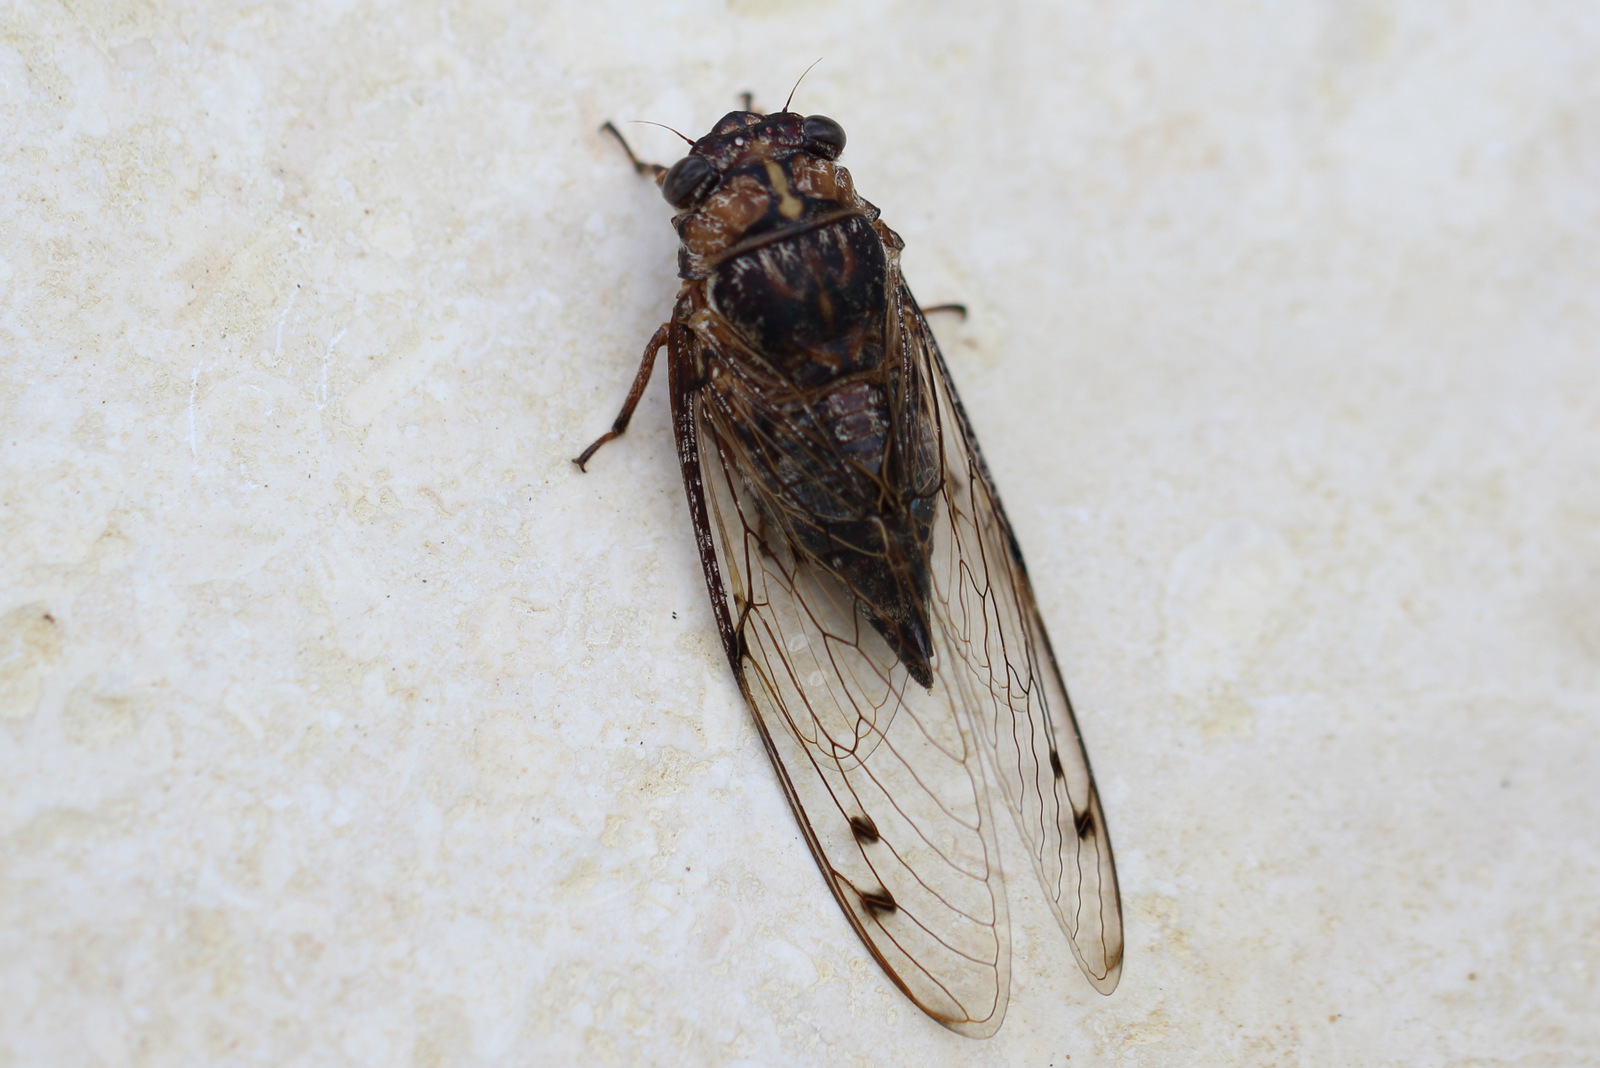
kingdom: Animalia
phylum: Arthropoda
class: Insecta
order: Hemiptera
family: Cicadidae
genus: Aleeta
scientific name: Aleeta curvicosta
